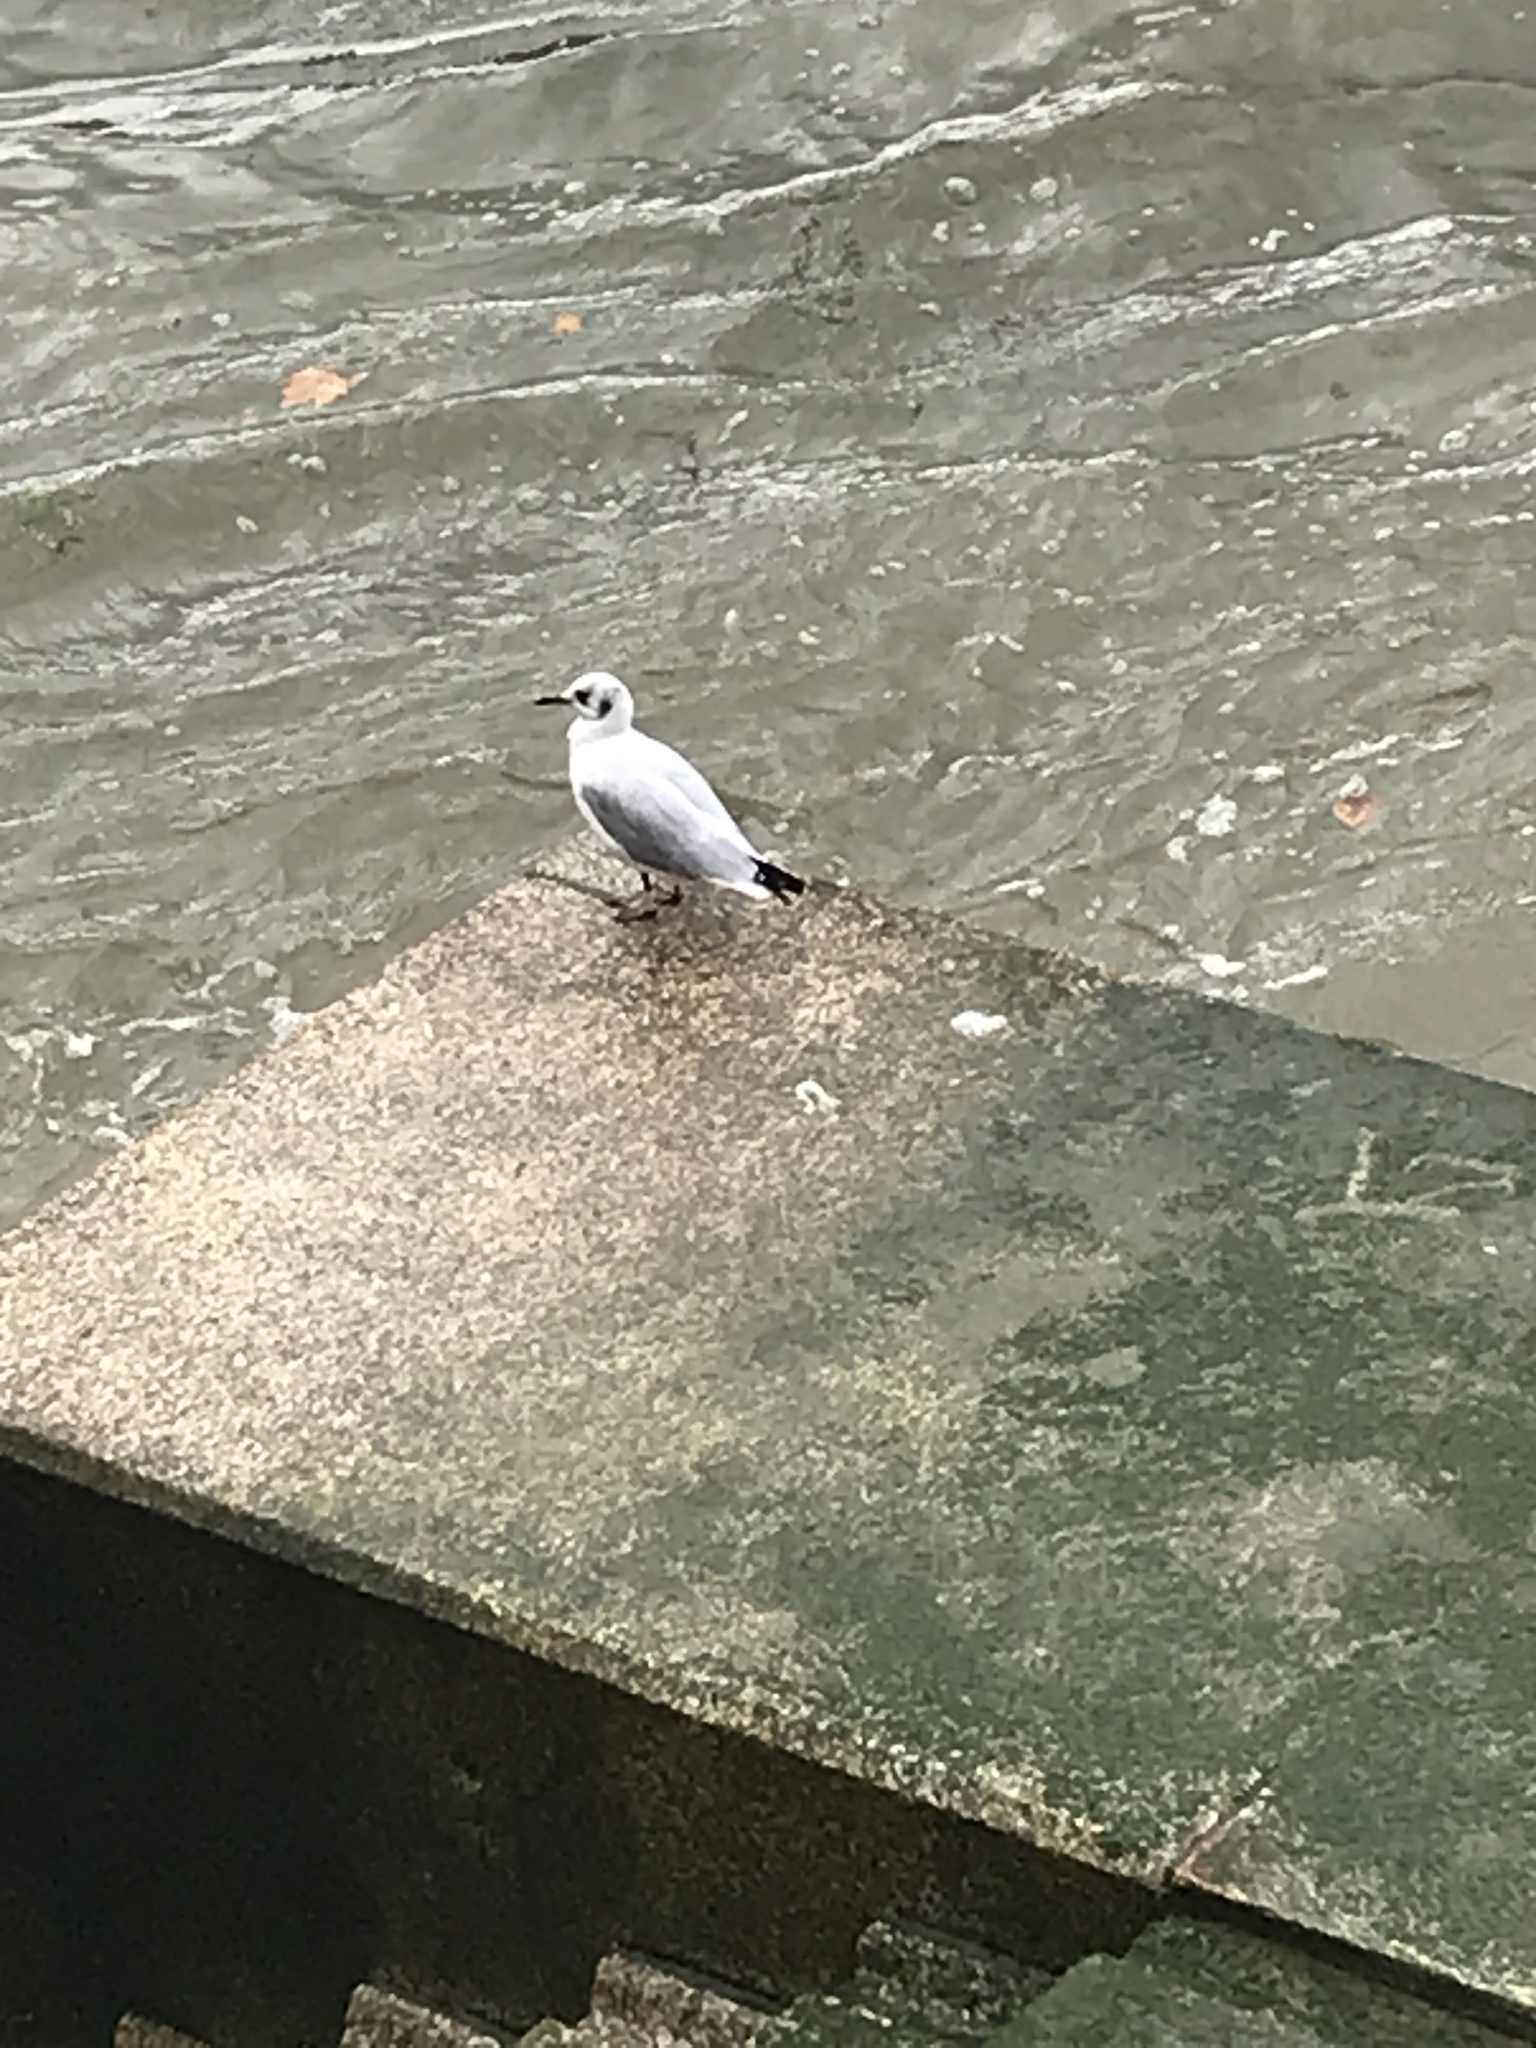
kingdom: Animalia
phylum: Chordata
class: Aves
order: Charadriiformes
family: Laridae
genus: Chroicocephalus
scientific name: Chroicocephalus ridibundus
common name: Black-headed gull
